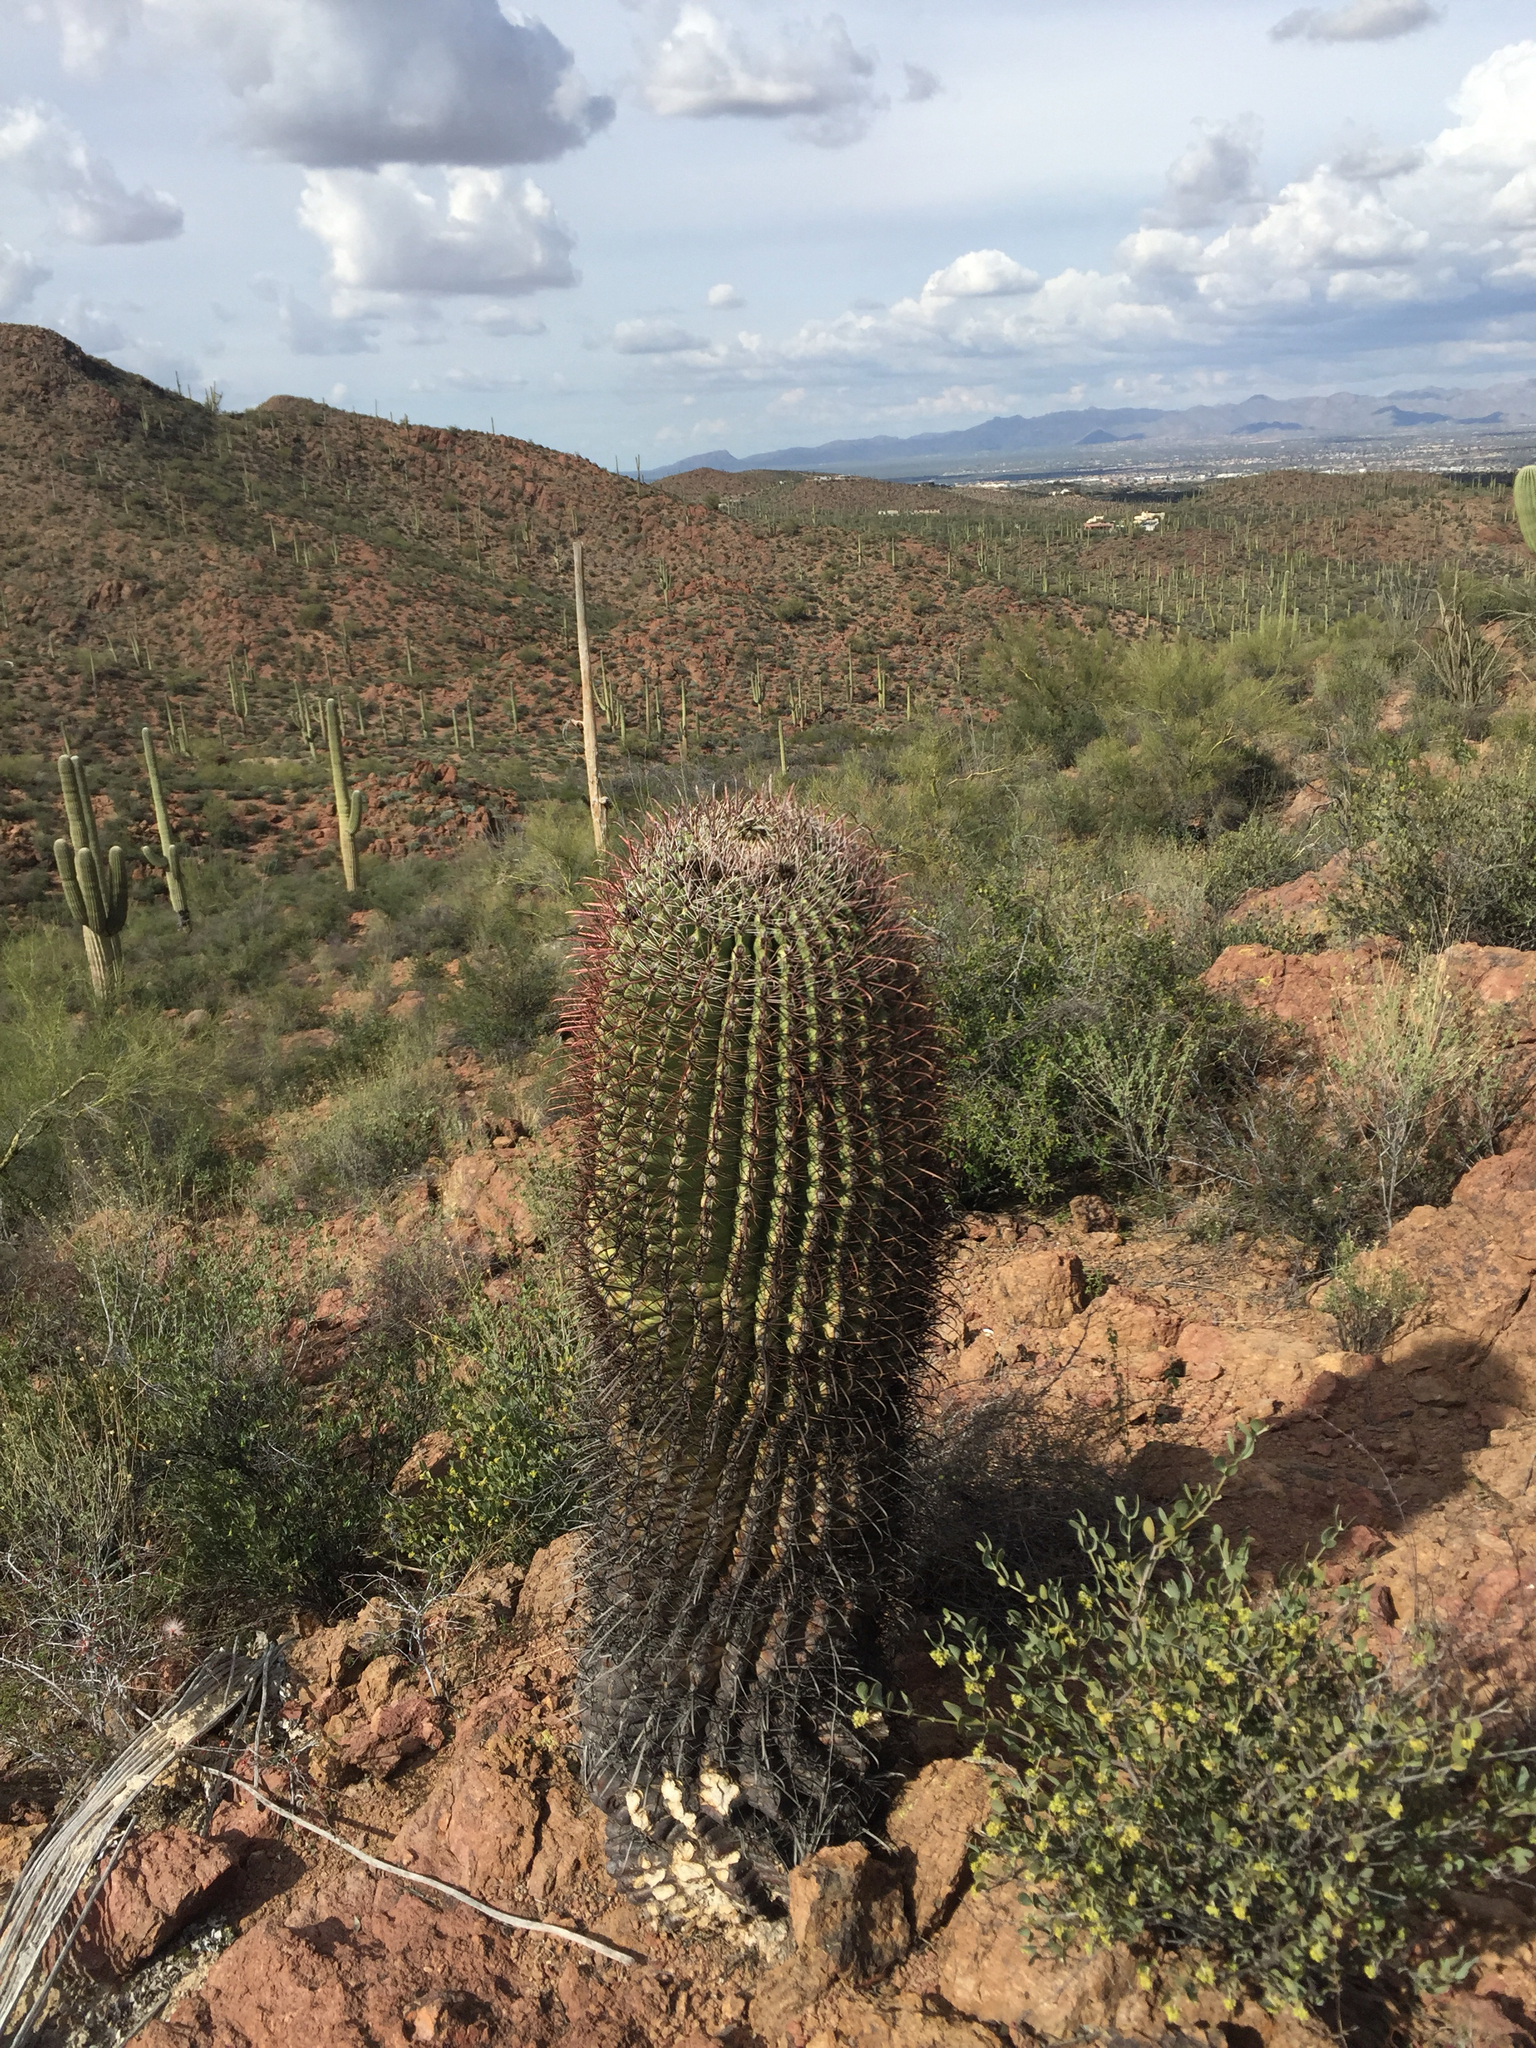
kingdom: Plantae
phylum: Tracheophyta
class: Magnoliopsida
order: Caryophyllales
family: Cactaceae
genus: Ferocactus
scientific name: Ferocactus cylindraceus
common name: California barrel cactus
